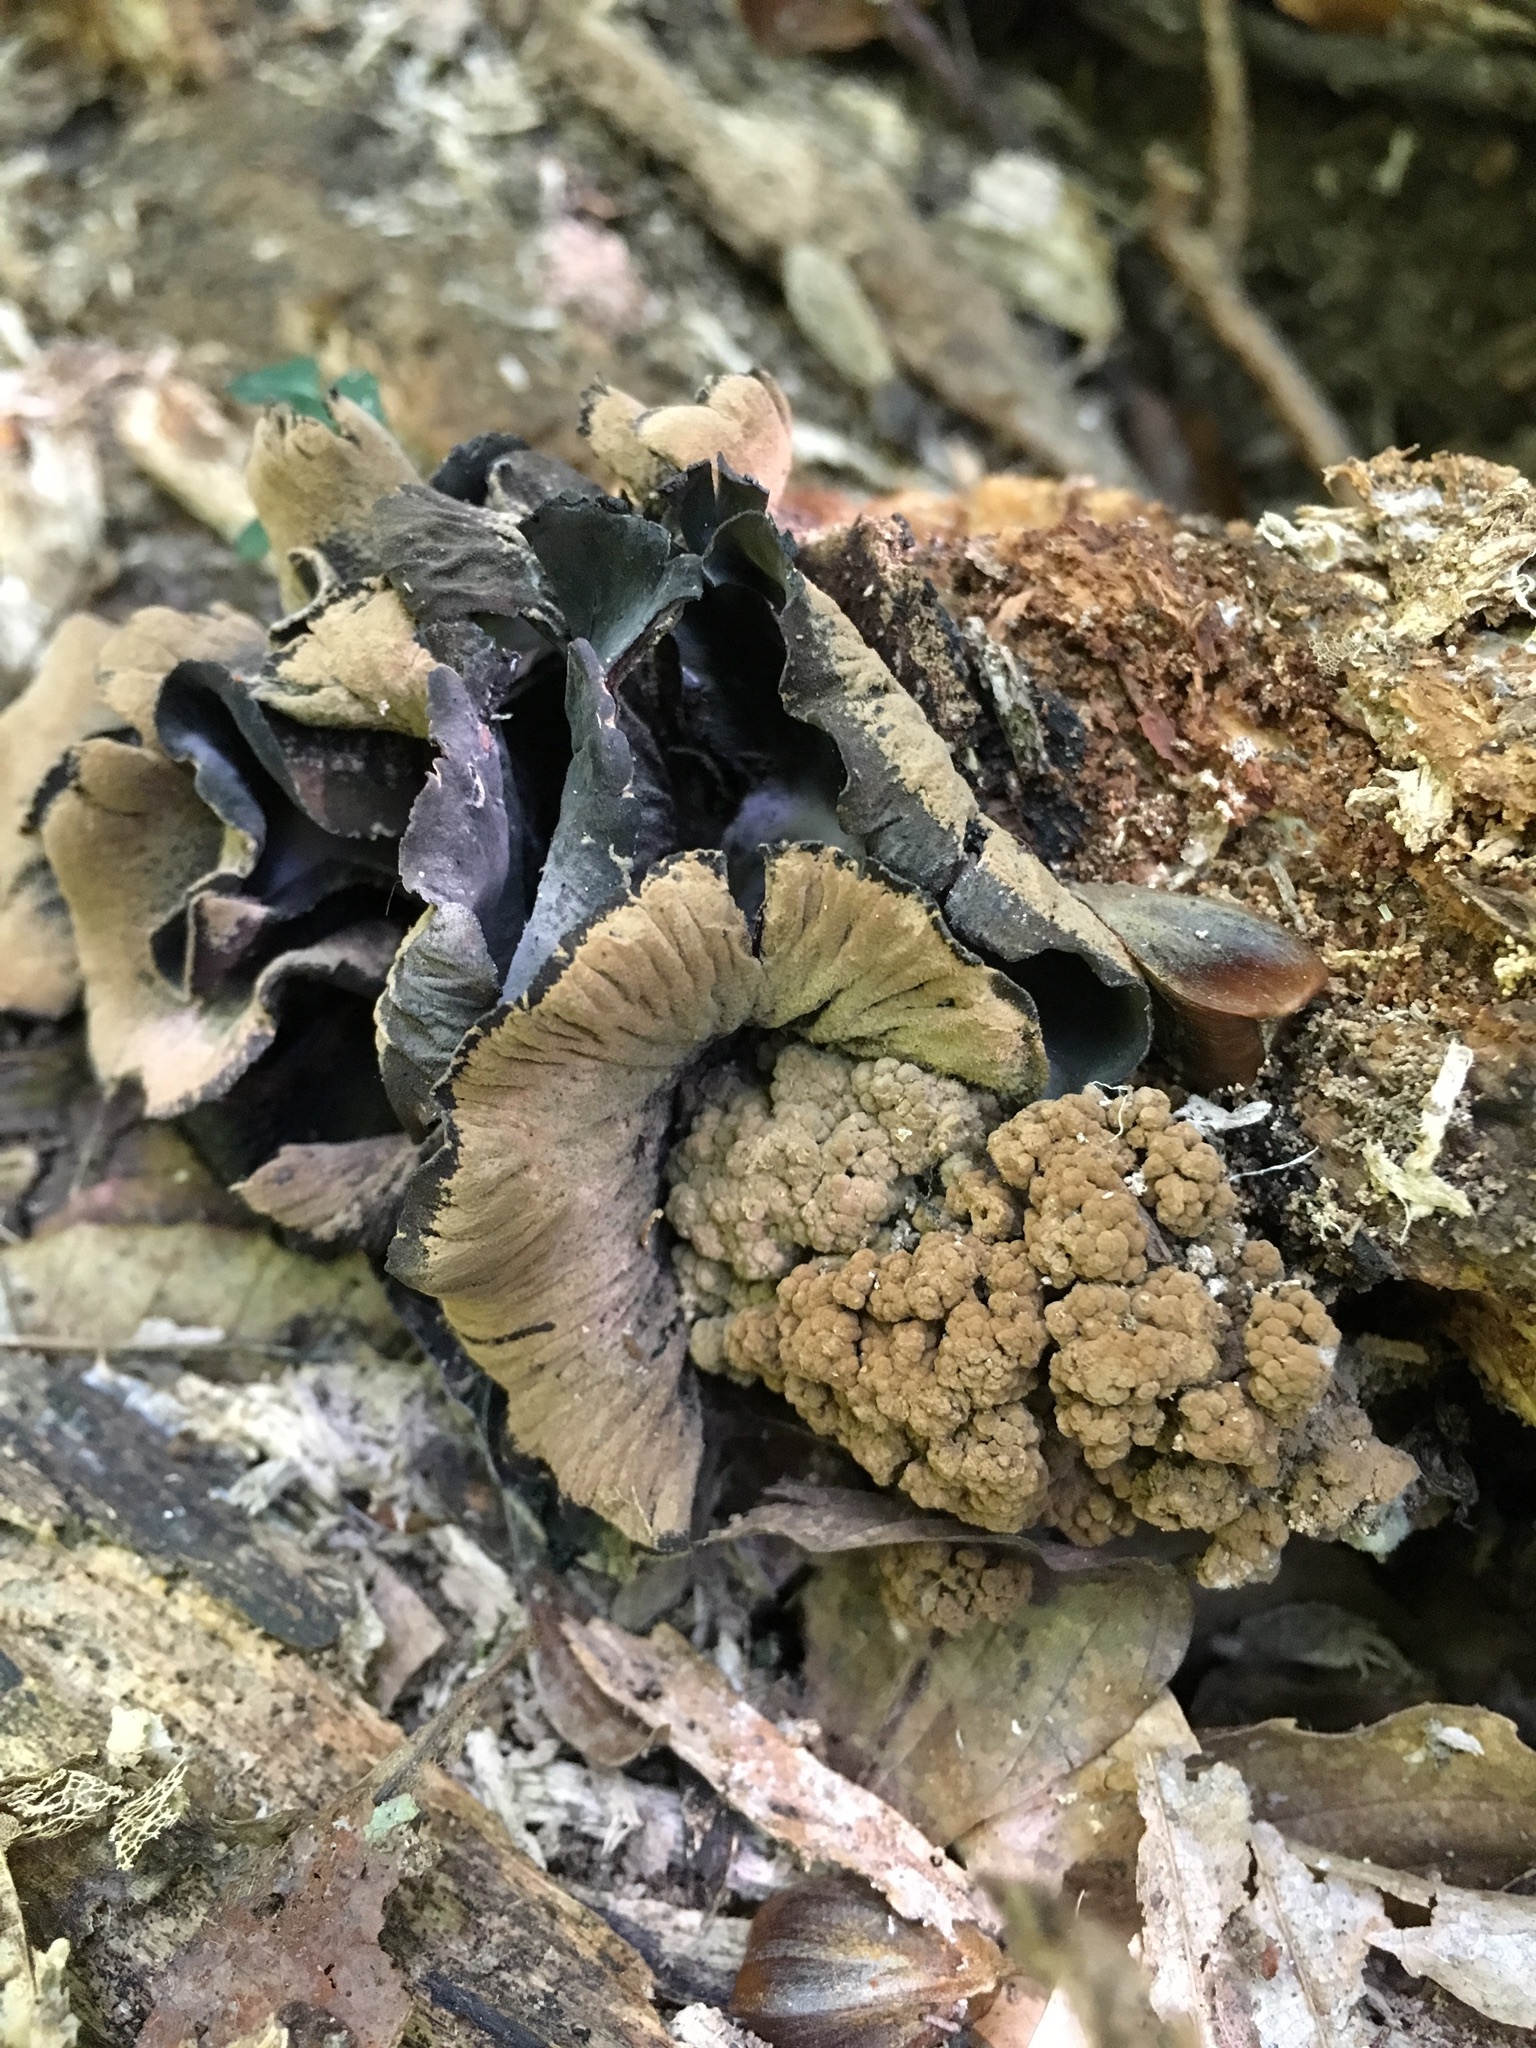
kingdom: Fungi
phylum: Ascomycota
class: Leotiomycetes
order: Helotiales
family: Cordieritidaceae
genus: Diplocarpa
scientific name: Diplocarpa irregularis
